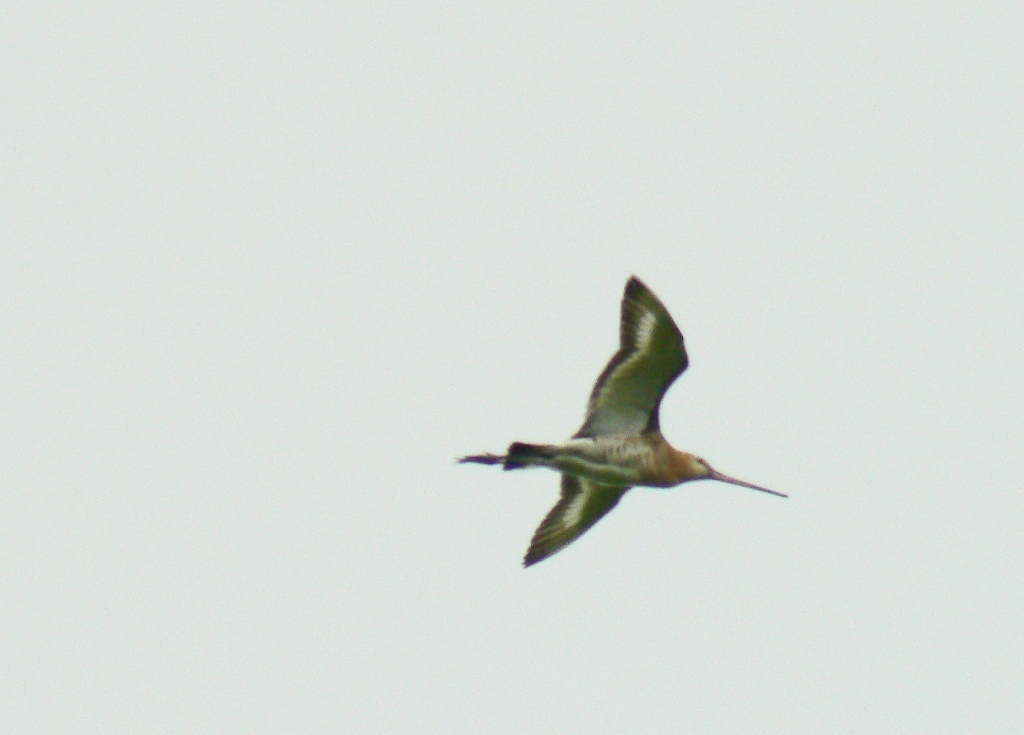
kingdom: Animalia
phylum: Chordata
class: Aves
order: Charadriiformes
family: Scolopacidae
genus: Limosa
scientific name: Limosa limosa
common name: Black-tailed godwit
